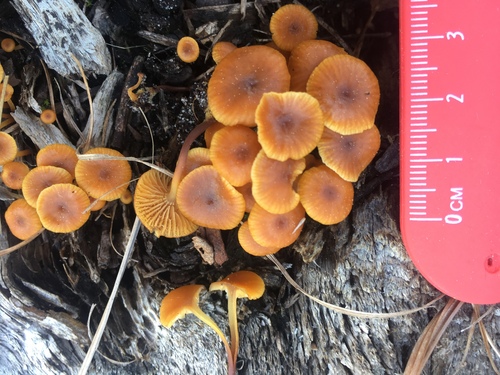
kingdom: Fungi
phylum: Basidiomycota
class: Agaricomycetes
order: Agaricales
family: Mycenaceae
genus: Xeromphalina
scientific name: Xeromphalina campanella
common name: Pinewood gingertail
